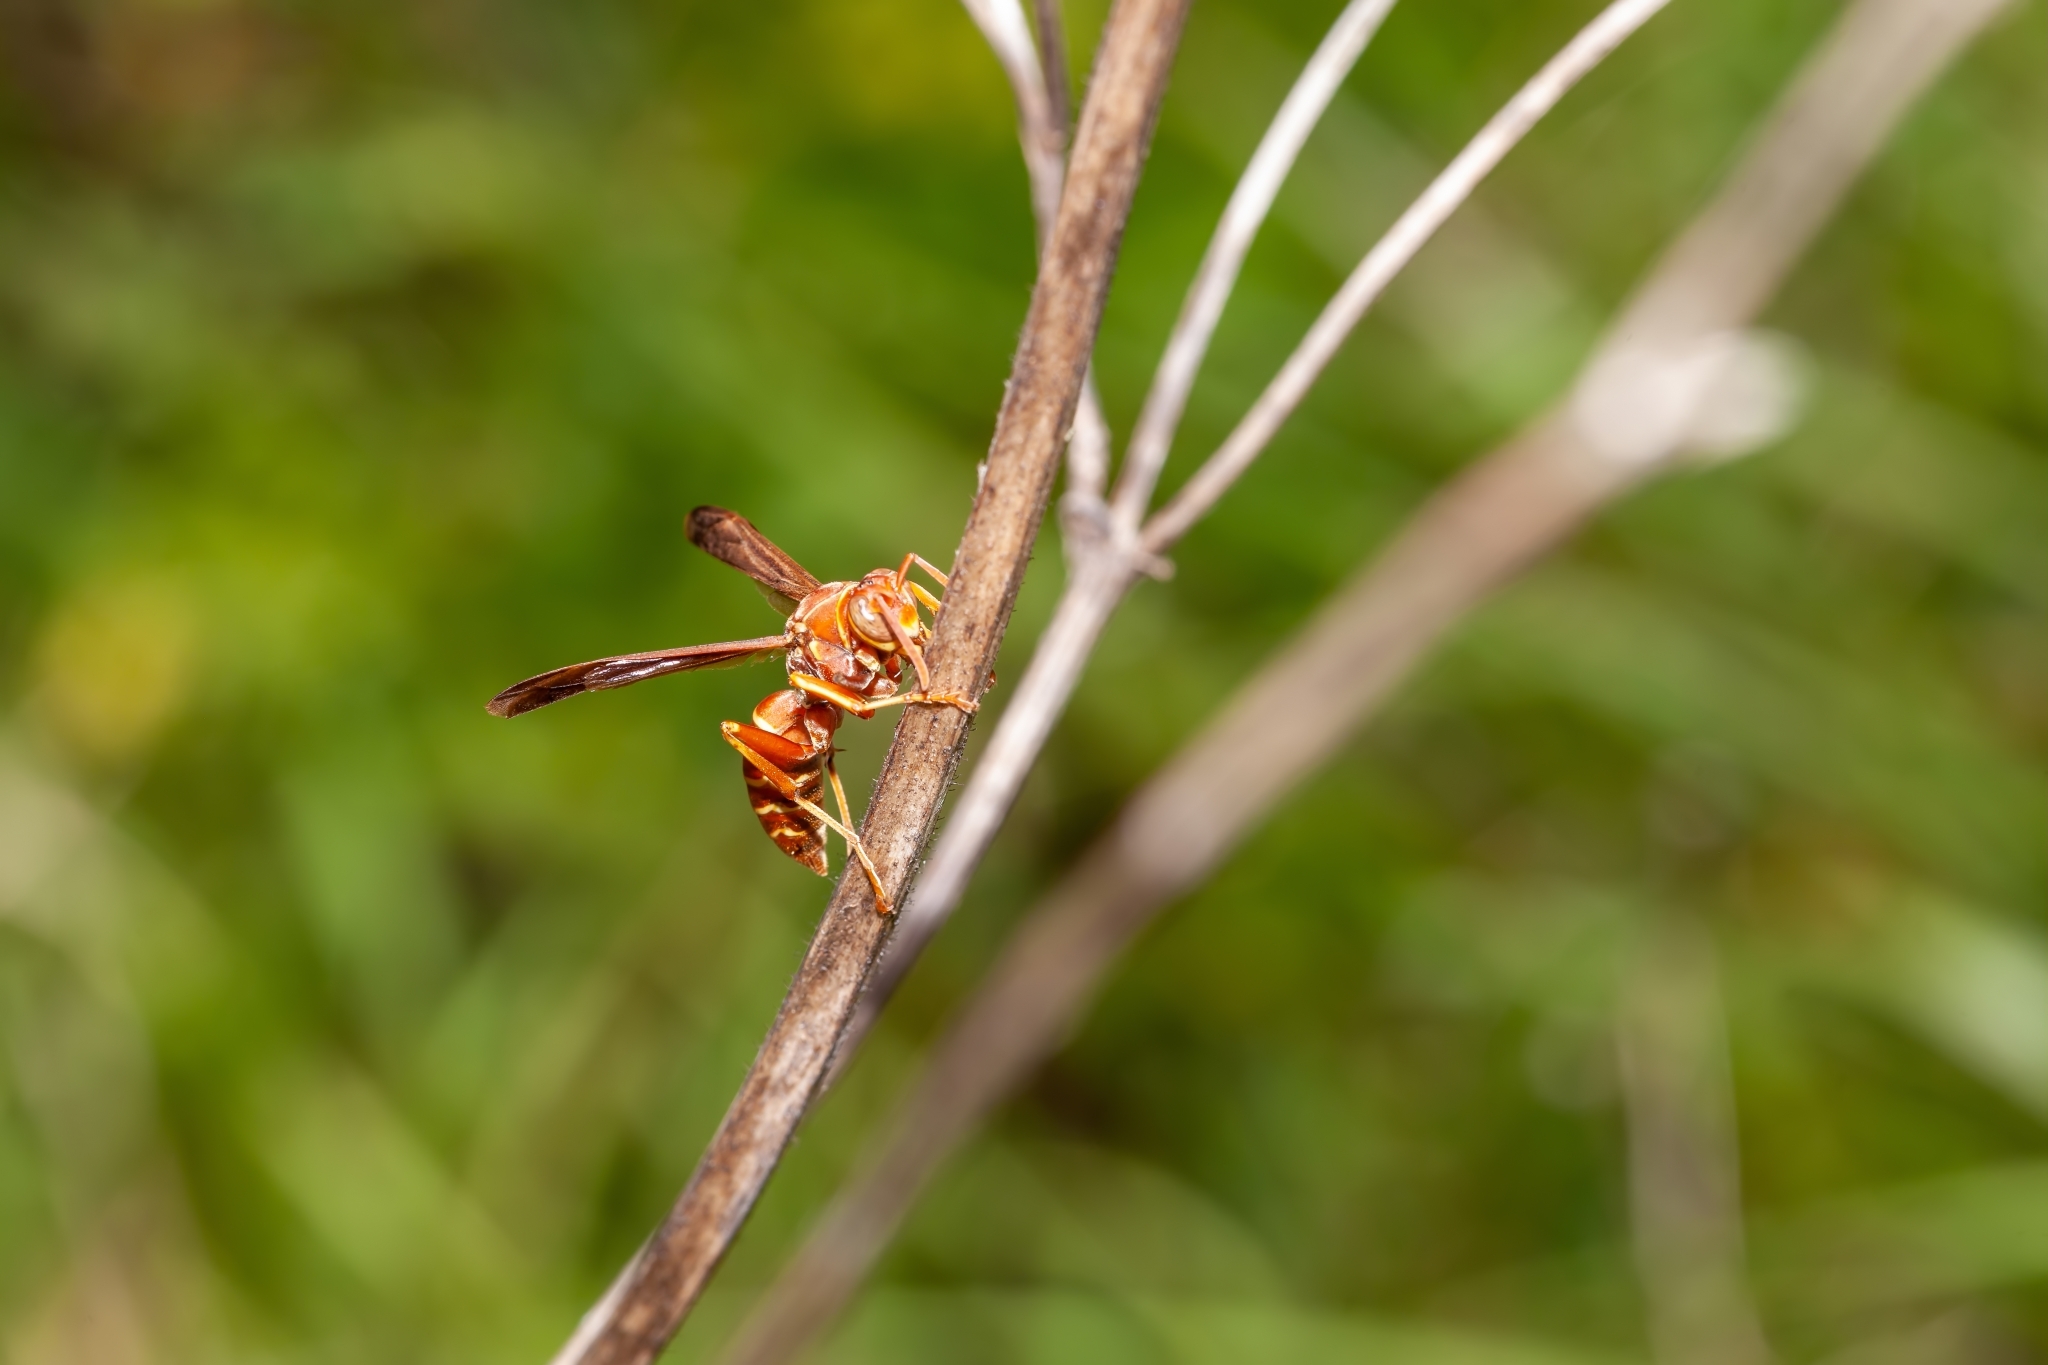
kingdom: Animalia
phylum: Arthropoda
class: Insecta
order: Hymenoptera
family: Eumenidae
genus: Polistes
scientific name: Polistes bellicosus
